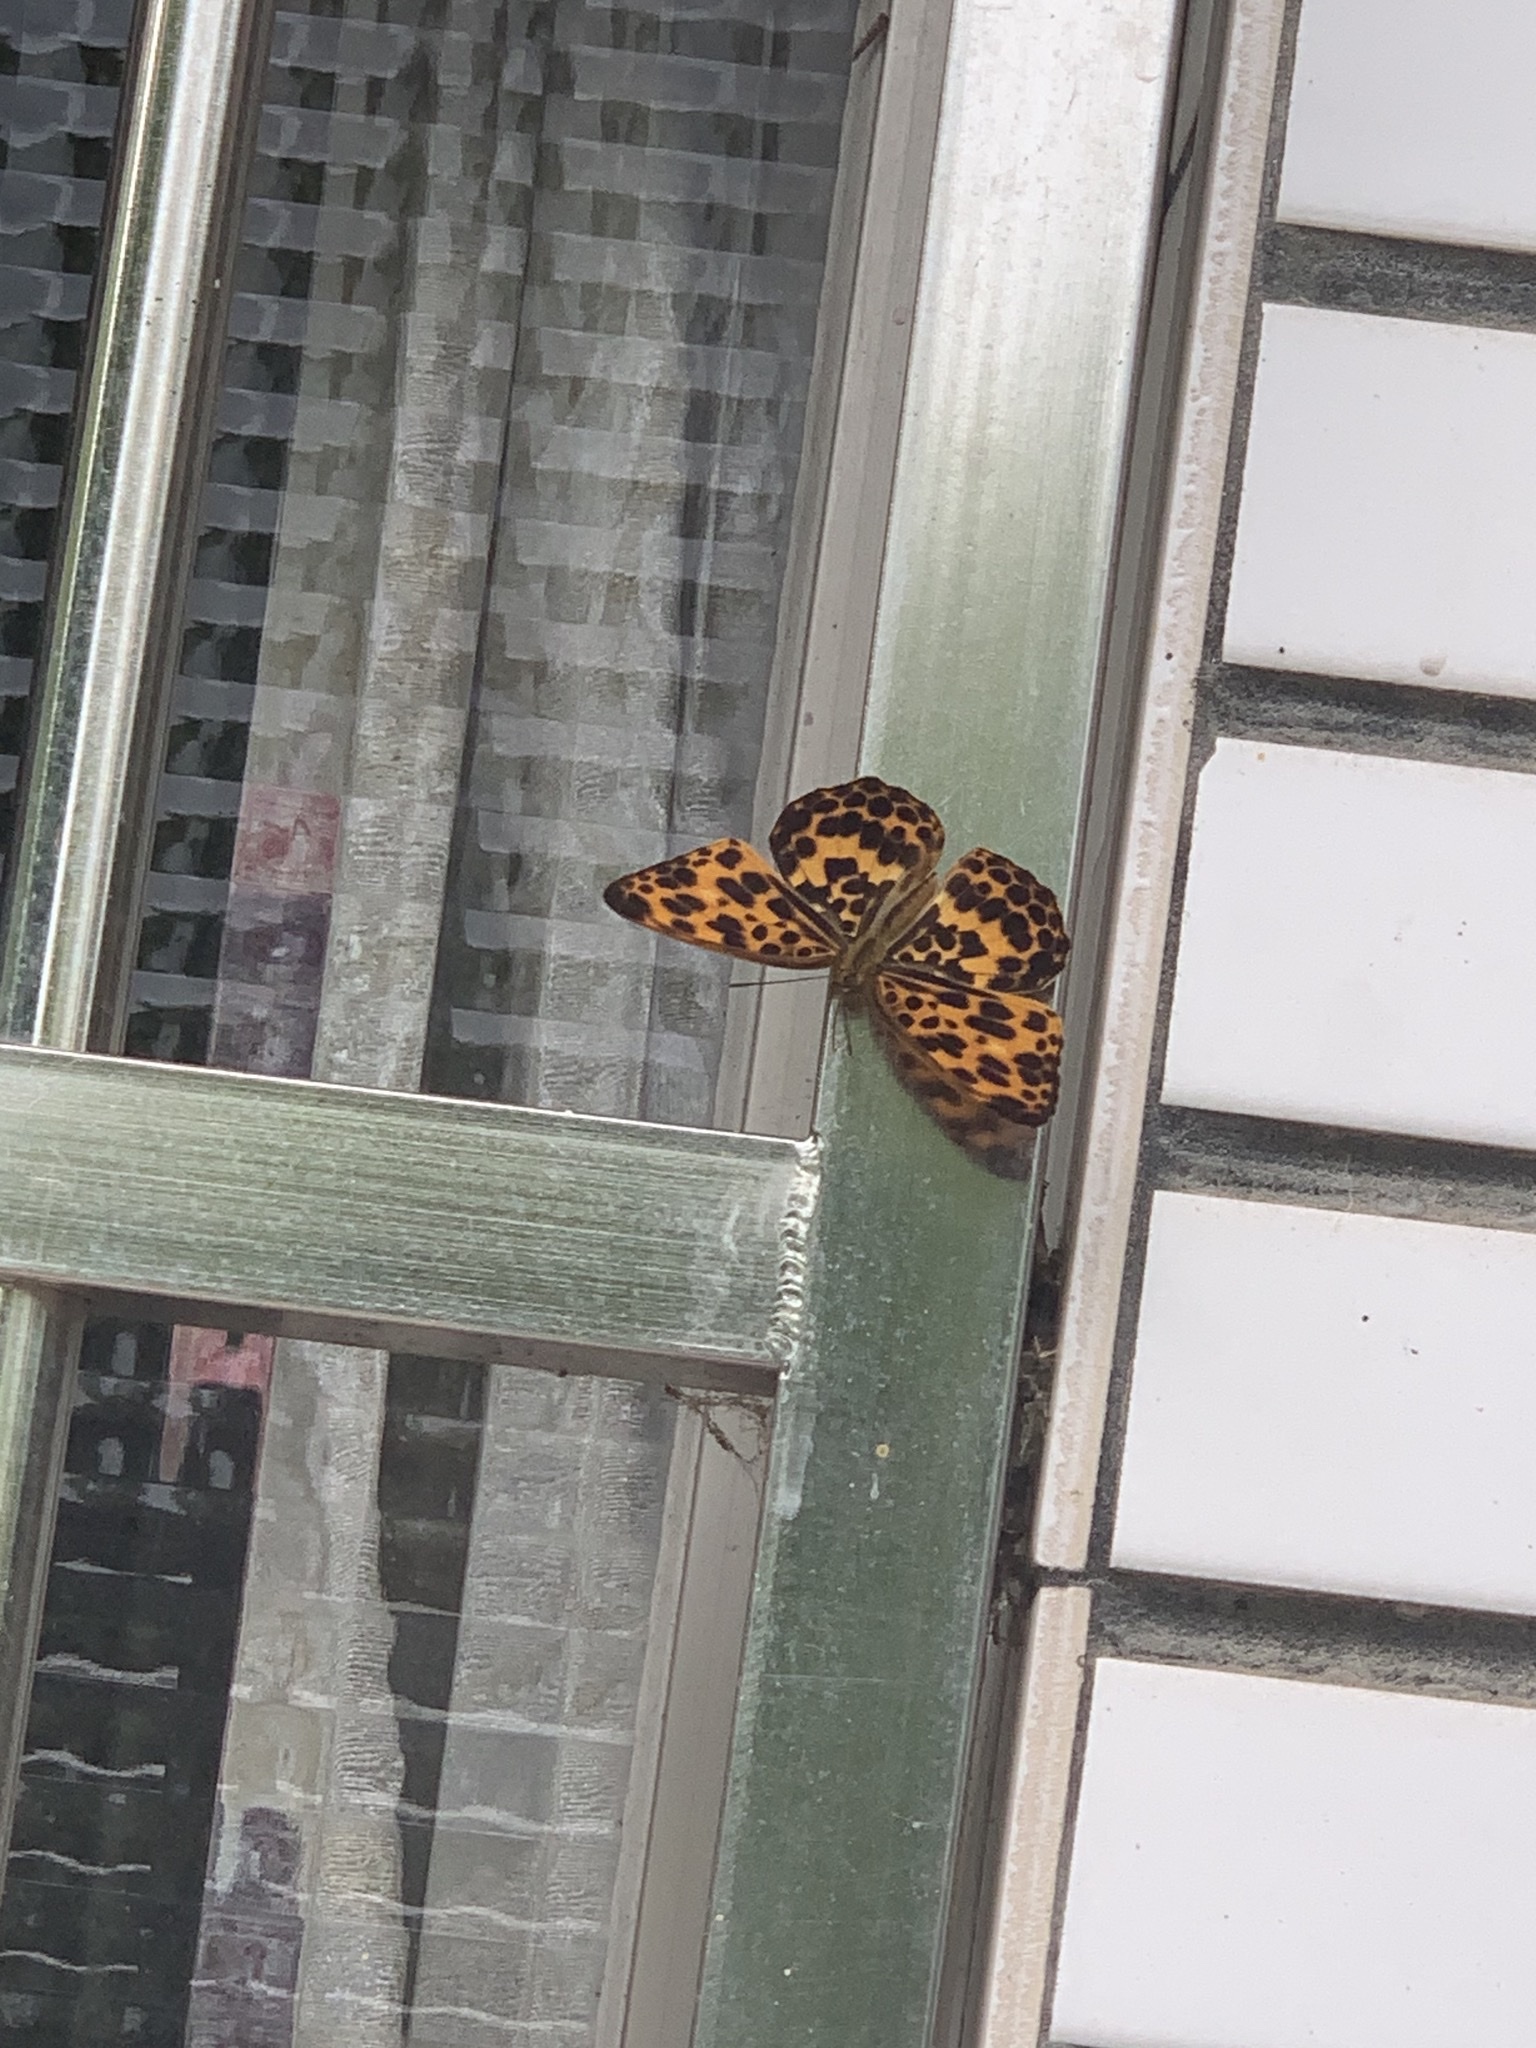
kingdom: Animalia
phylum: Arthropoda
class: Insecta
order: Lepidoptera
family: Nymphalidae
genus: Timelaea
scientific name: Timelaea albescens
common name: Beautiful leopard
